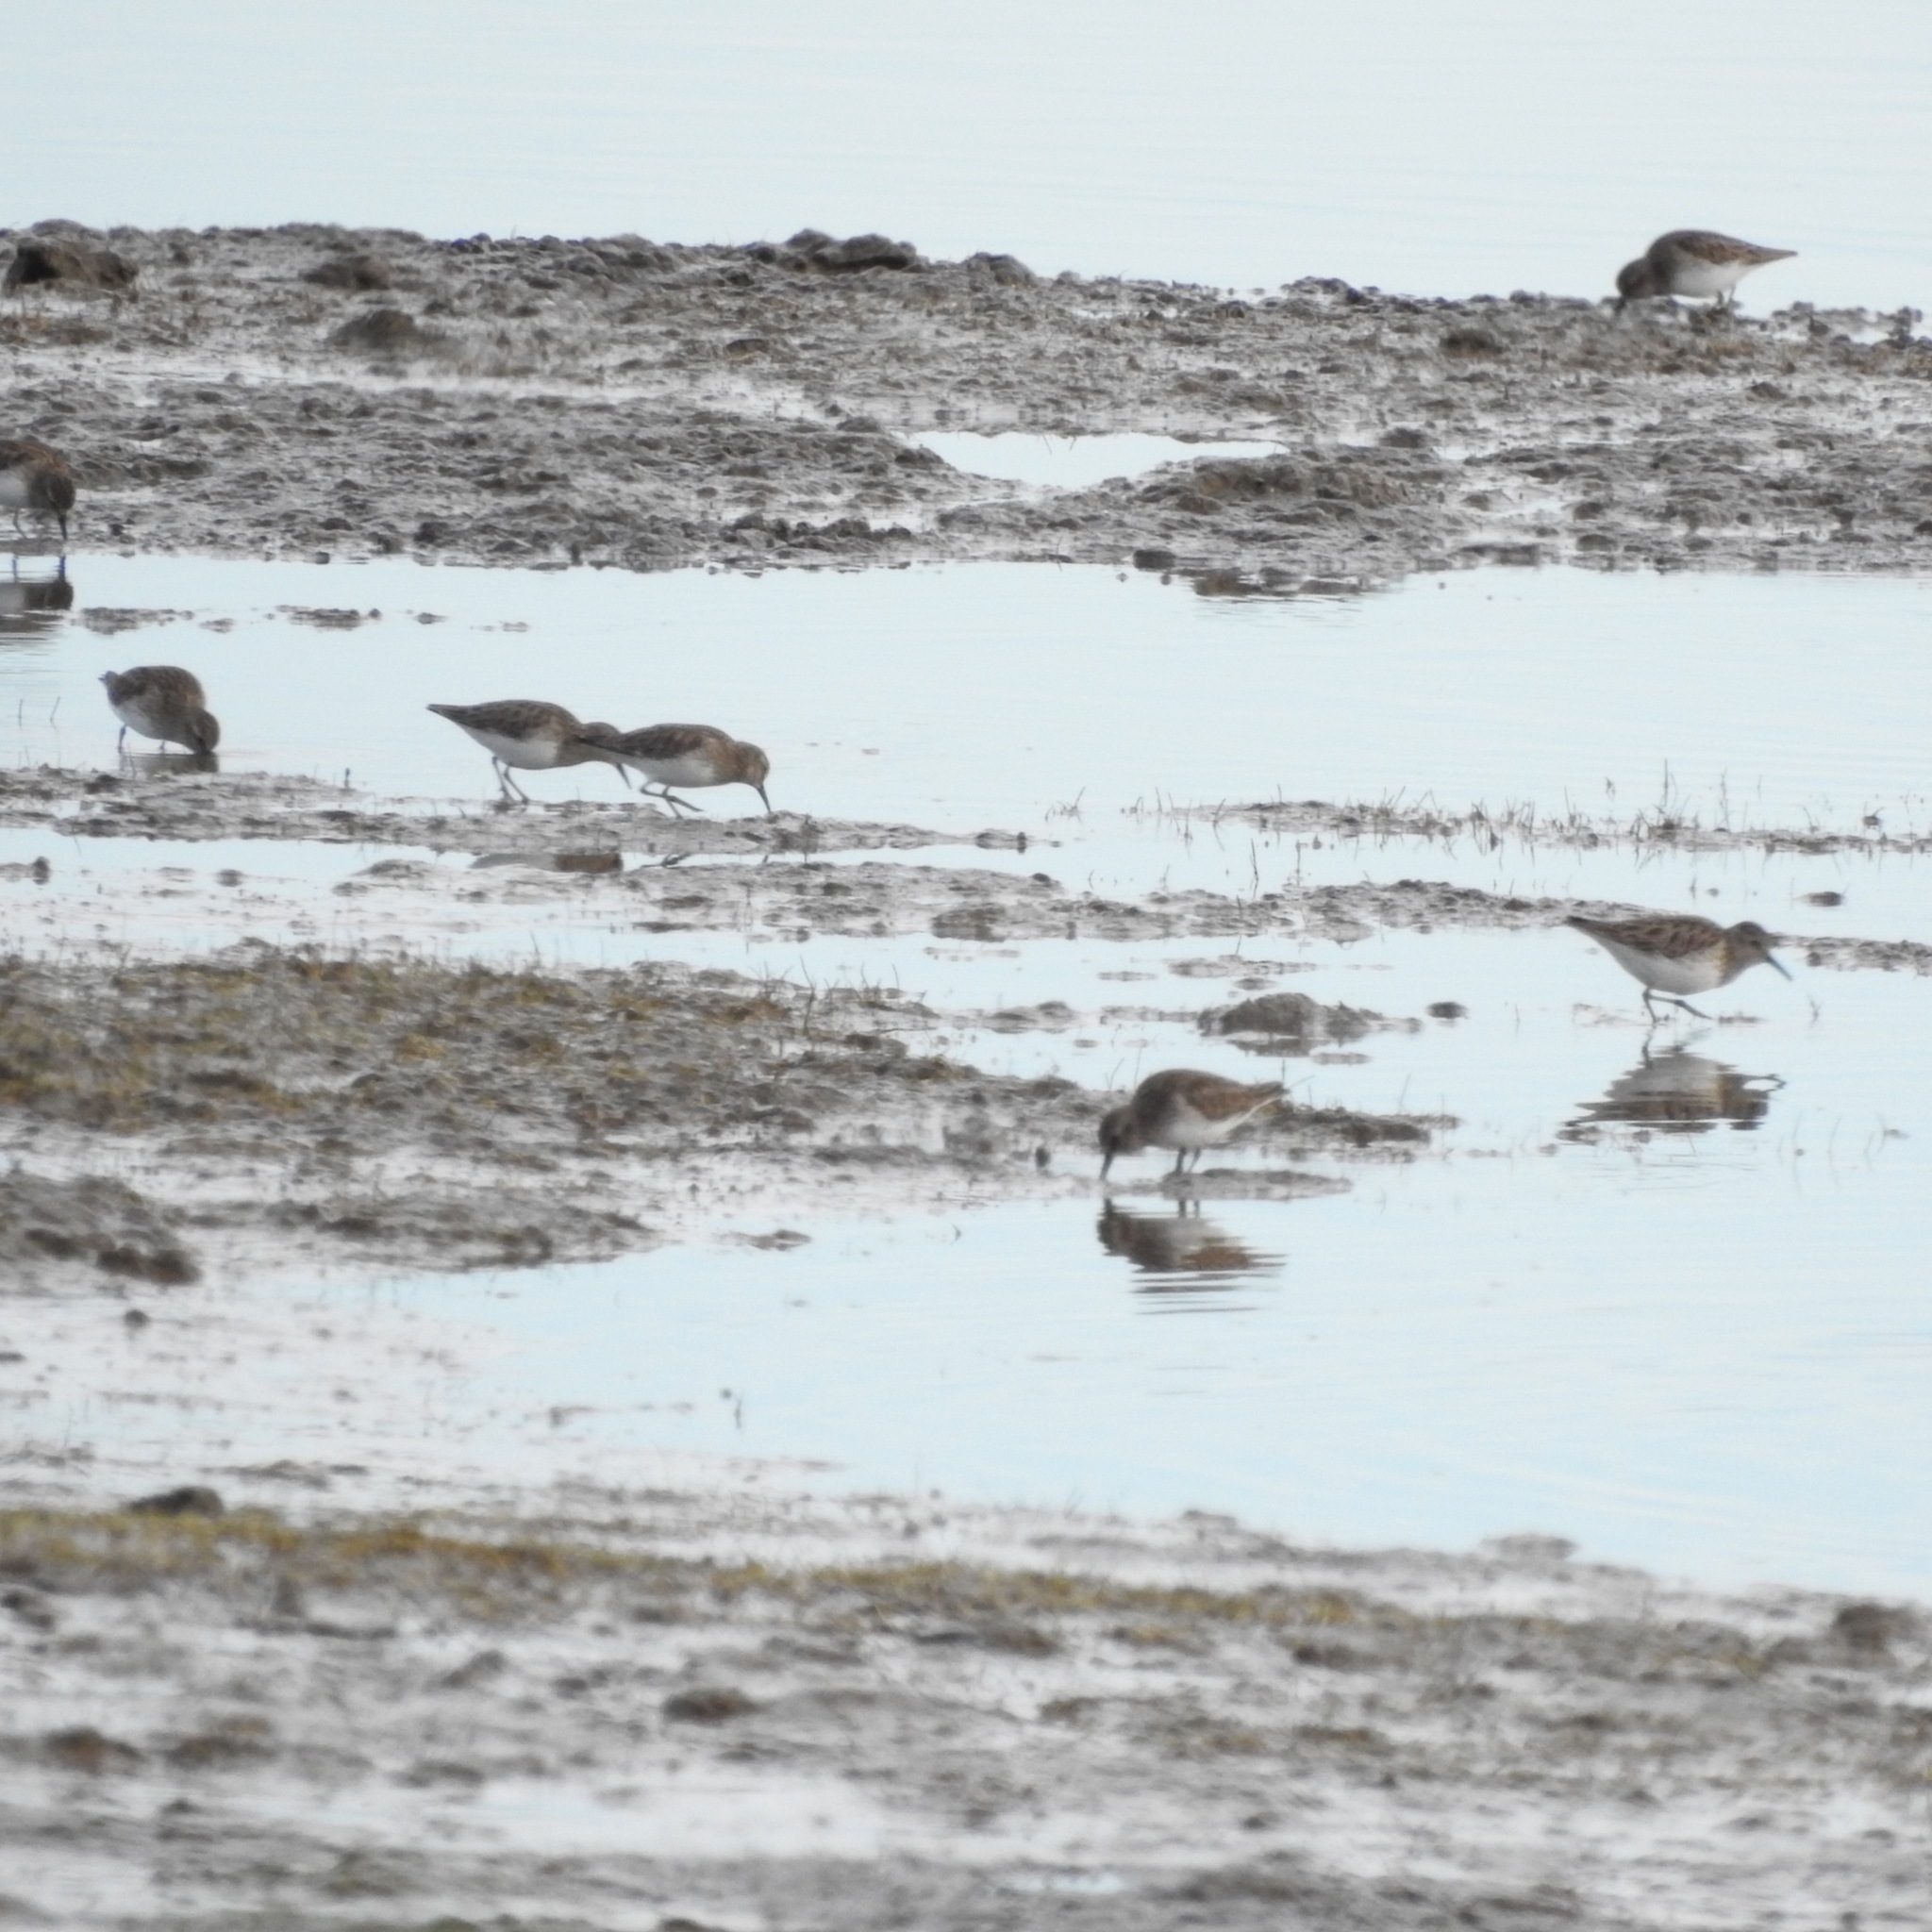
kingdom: Animalia
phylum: Chordata
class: Aves
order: Charadriiformes
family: Scolopacidae
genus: Calidris
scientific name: Calidris minutilla
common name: Least sandpiper
